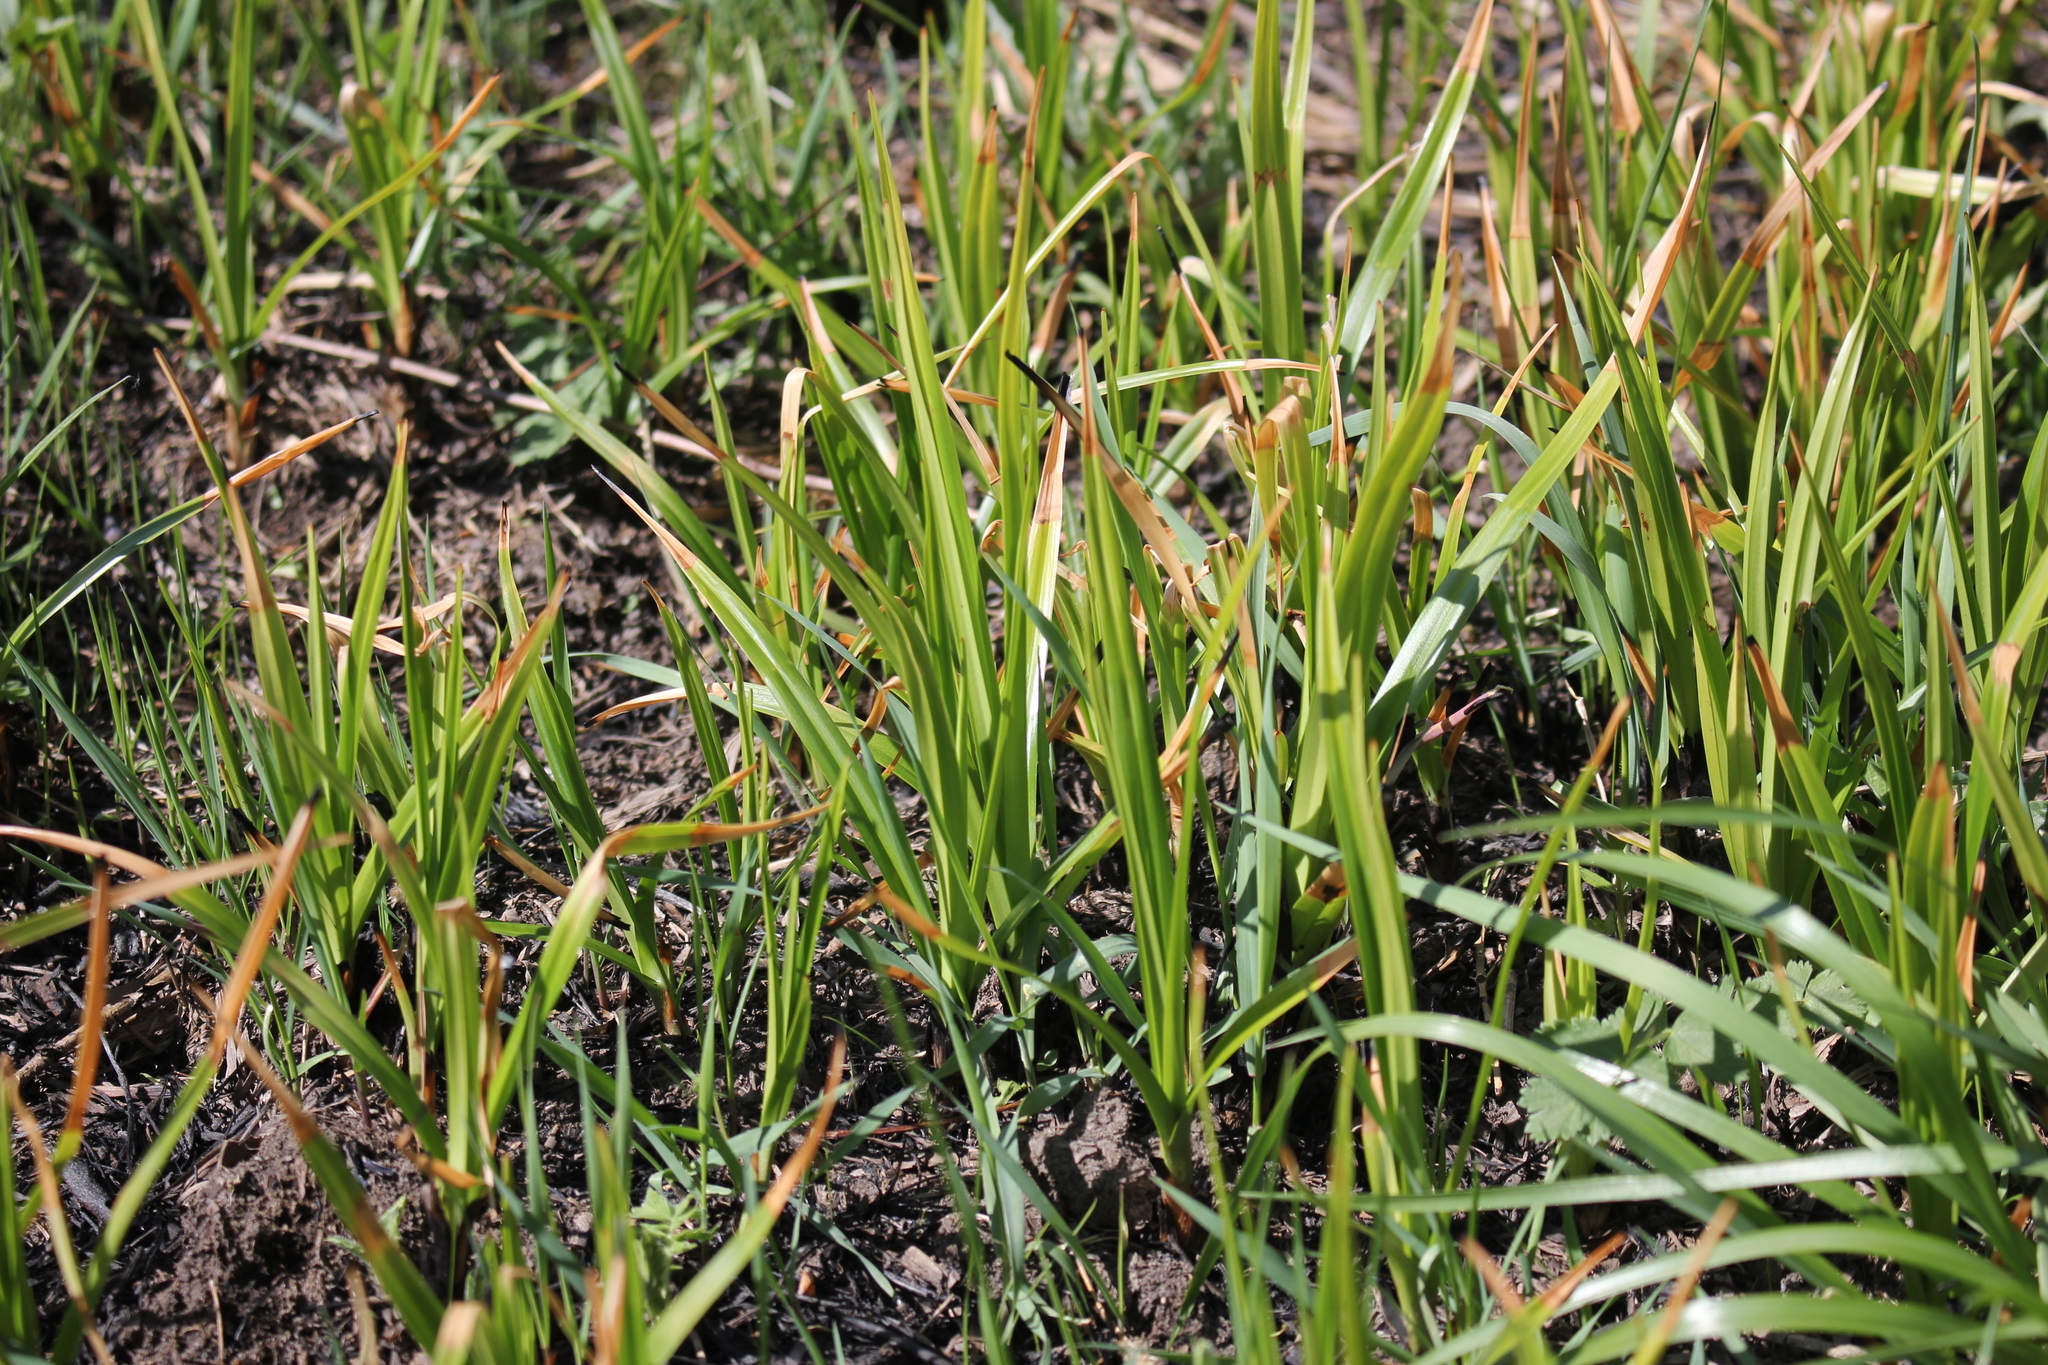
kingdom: Plantae
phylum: Tracheophyta
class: Liliopsida
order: Poales
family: Cyperaceae
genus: Scirpus
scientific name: Scirpus sylvaticus
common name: Wood club-rush
